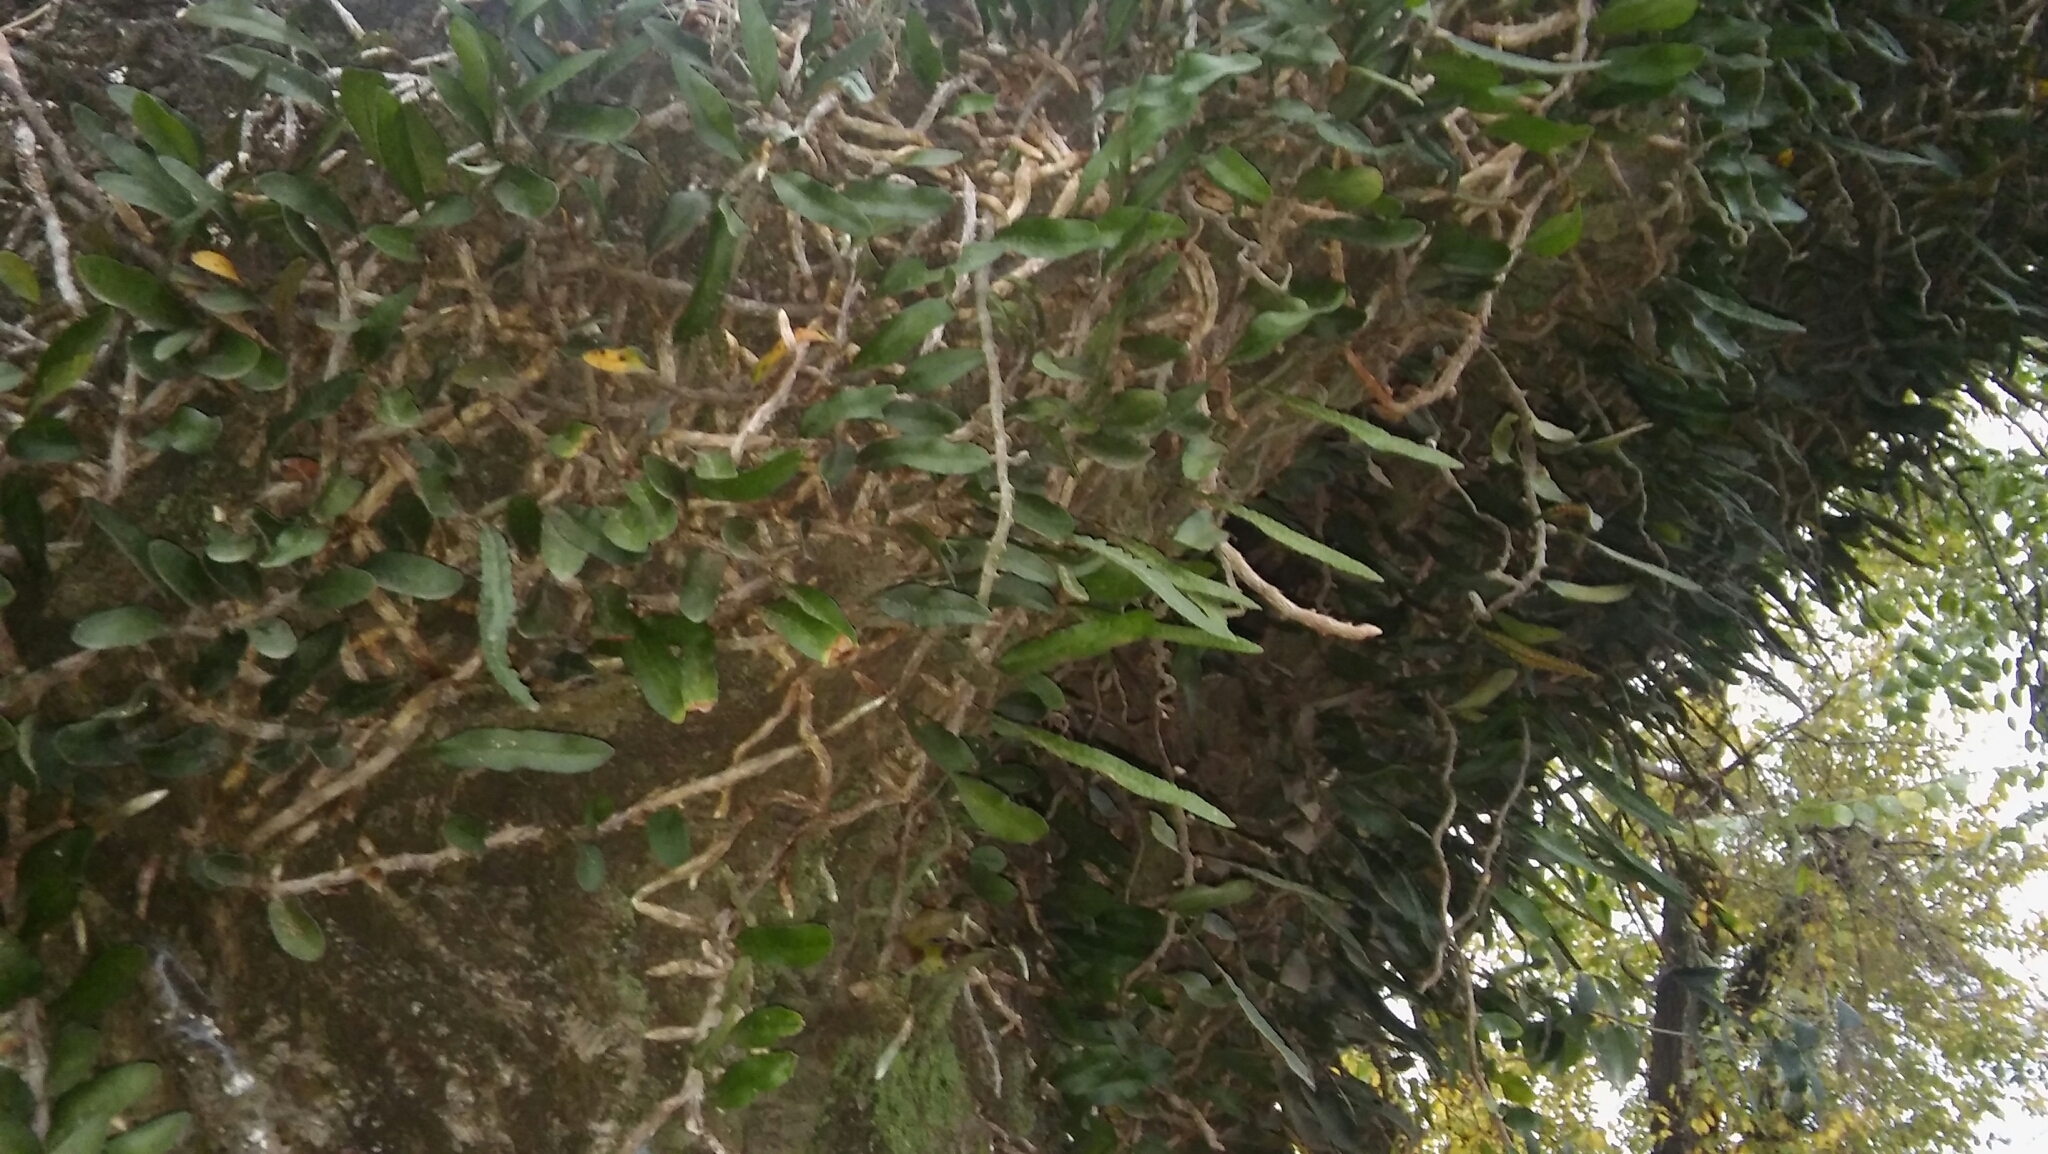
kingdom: Plantae
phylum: Tracheophyta
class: Polypodiopsida
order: Polypodiales
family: Polypodiaceae
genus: Microgramma
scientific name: Microgramma mortoniana
